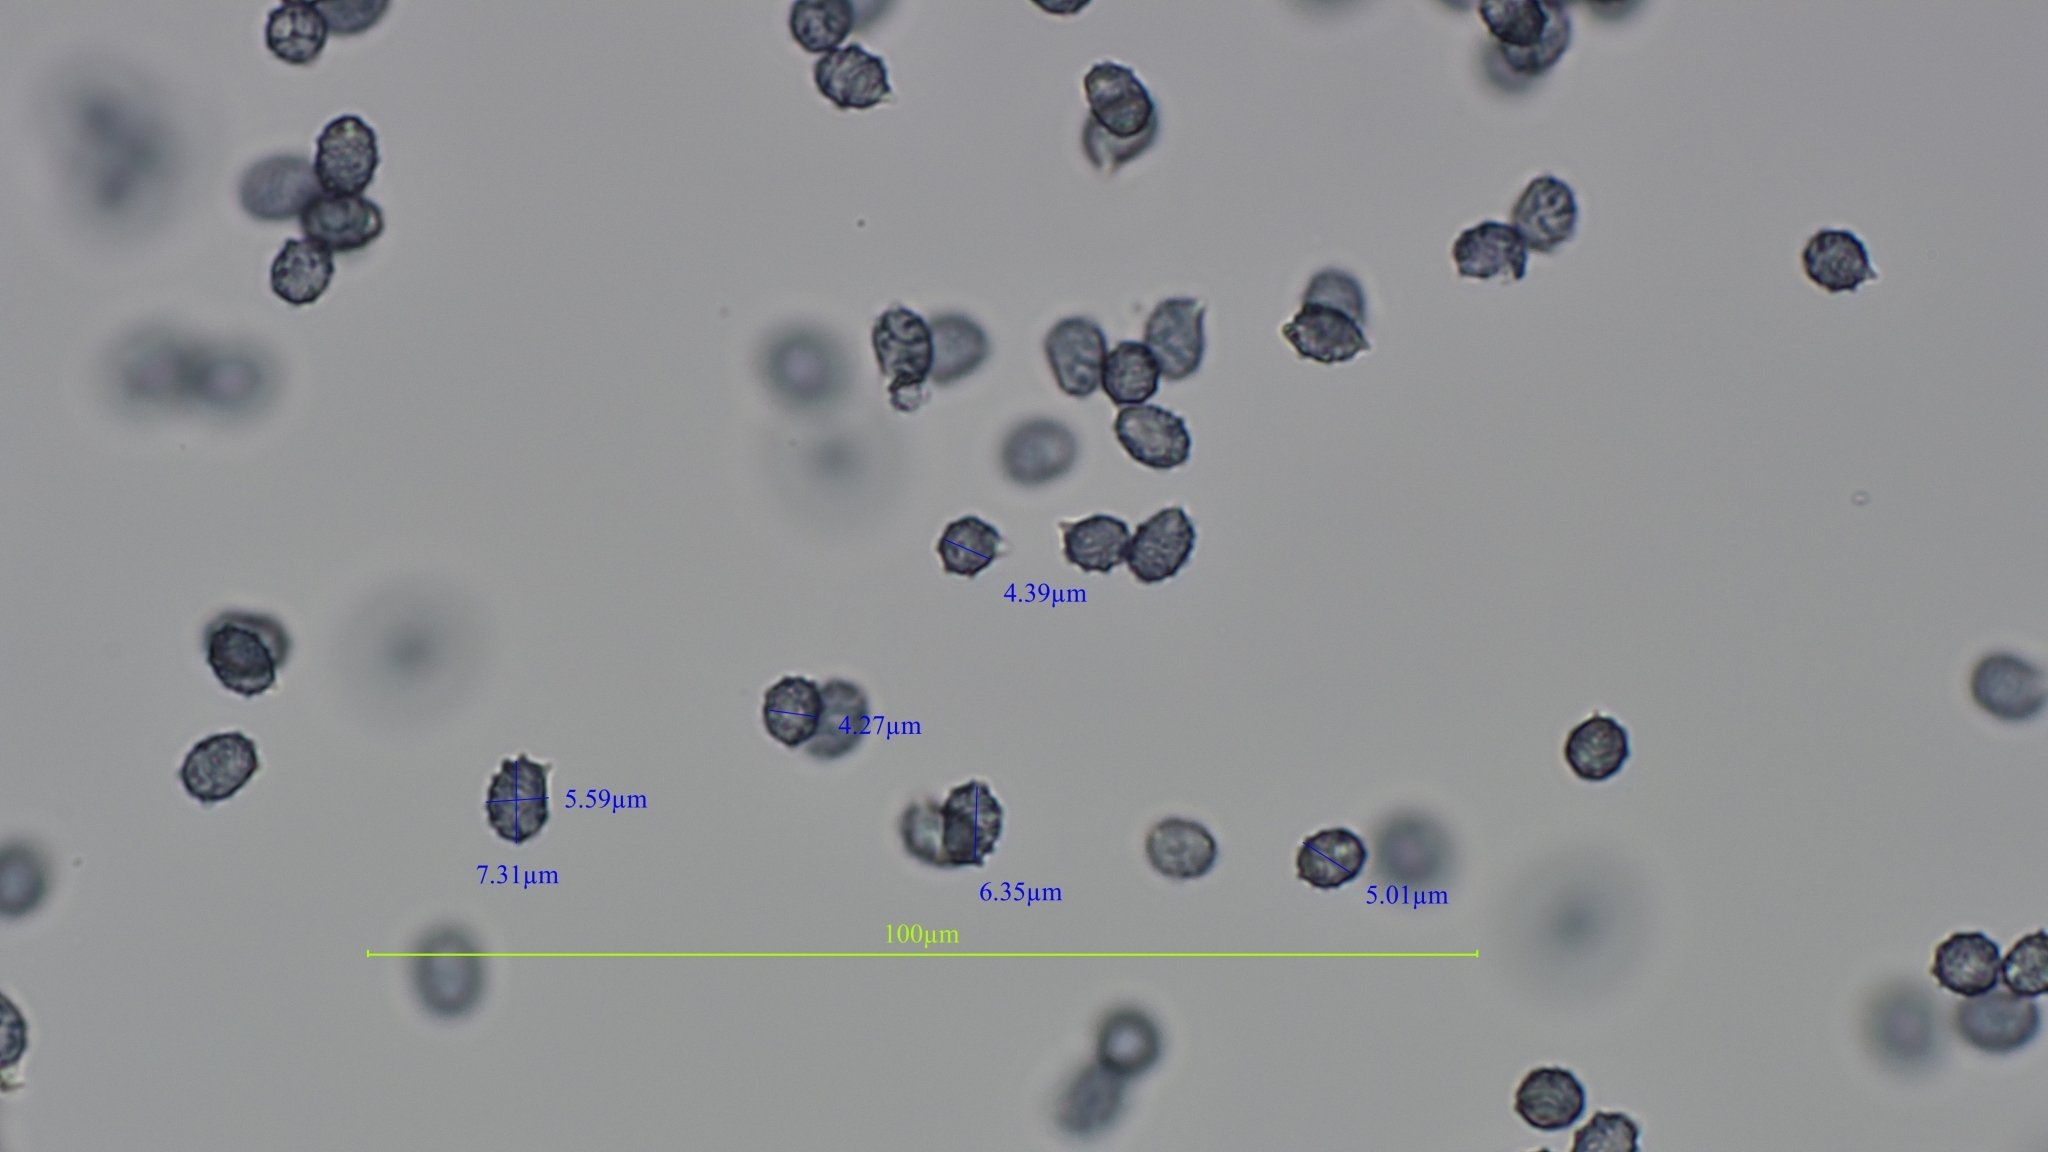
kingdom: Fungi
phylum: Basidiomycota
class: Agaricomycetes
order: Russulales
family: Russulaceae
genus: Lactarius
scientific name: Lactarius pubescens
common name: Bearded milkcap
